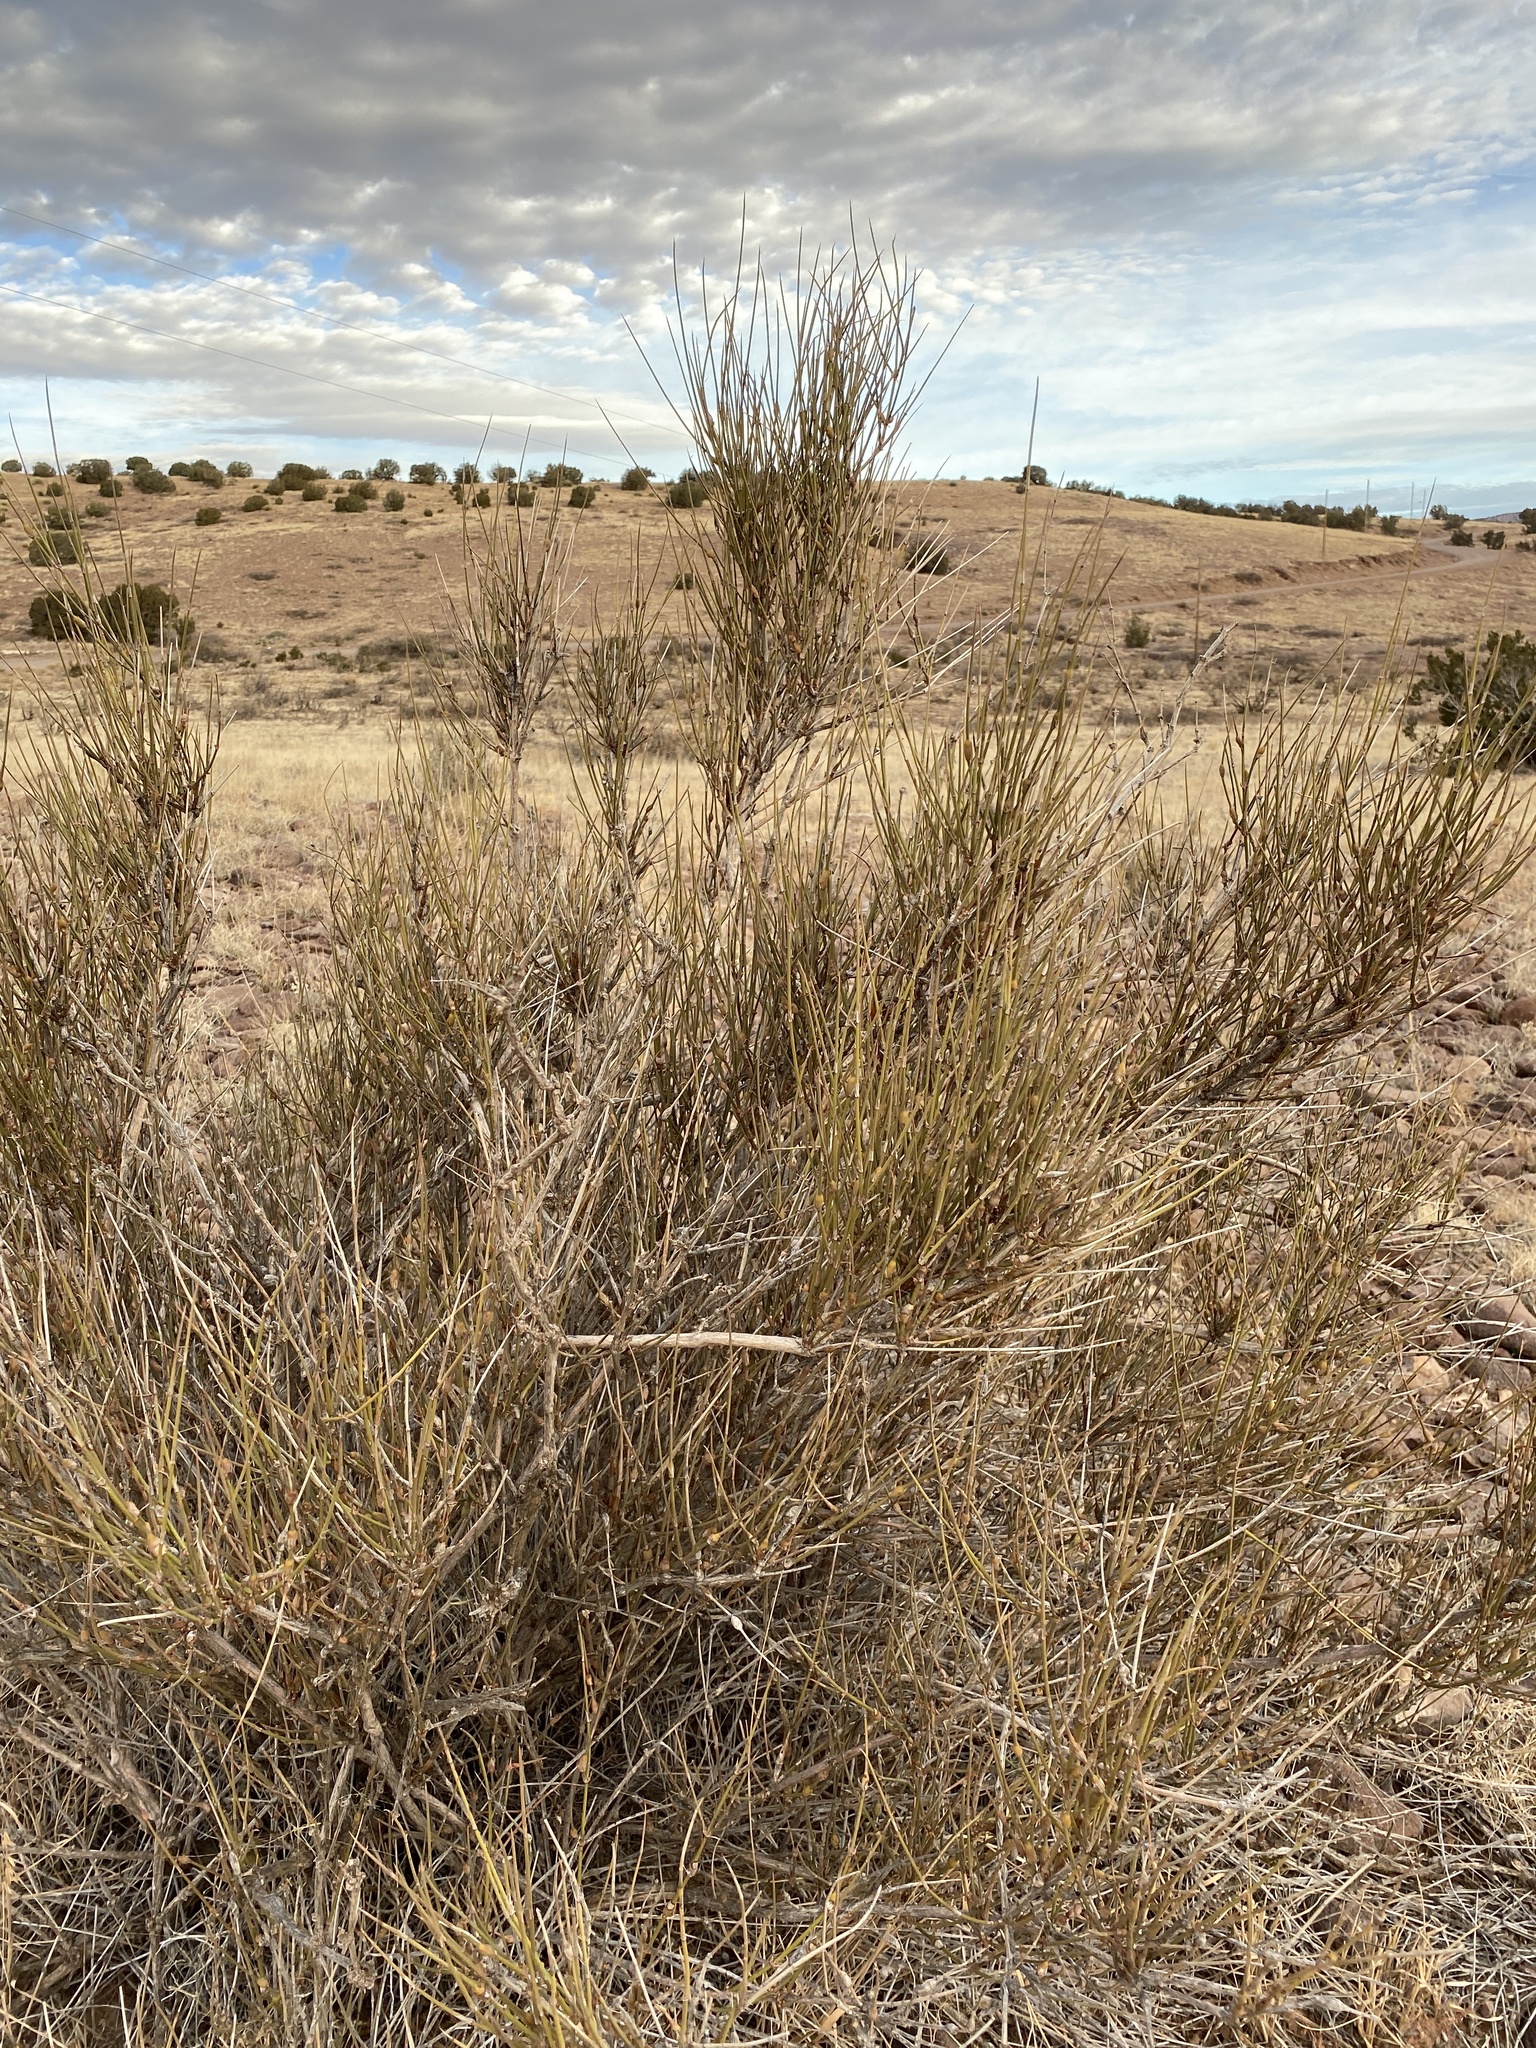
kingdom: Plantae
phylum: Tracheophyta
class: Gnetopsida
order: Ephedrales
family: Ephedraceae
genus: Ephedra
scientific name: Ephedra trifurca
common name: Mexican-tea
